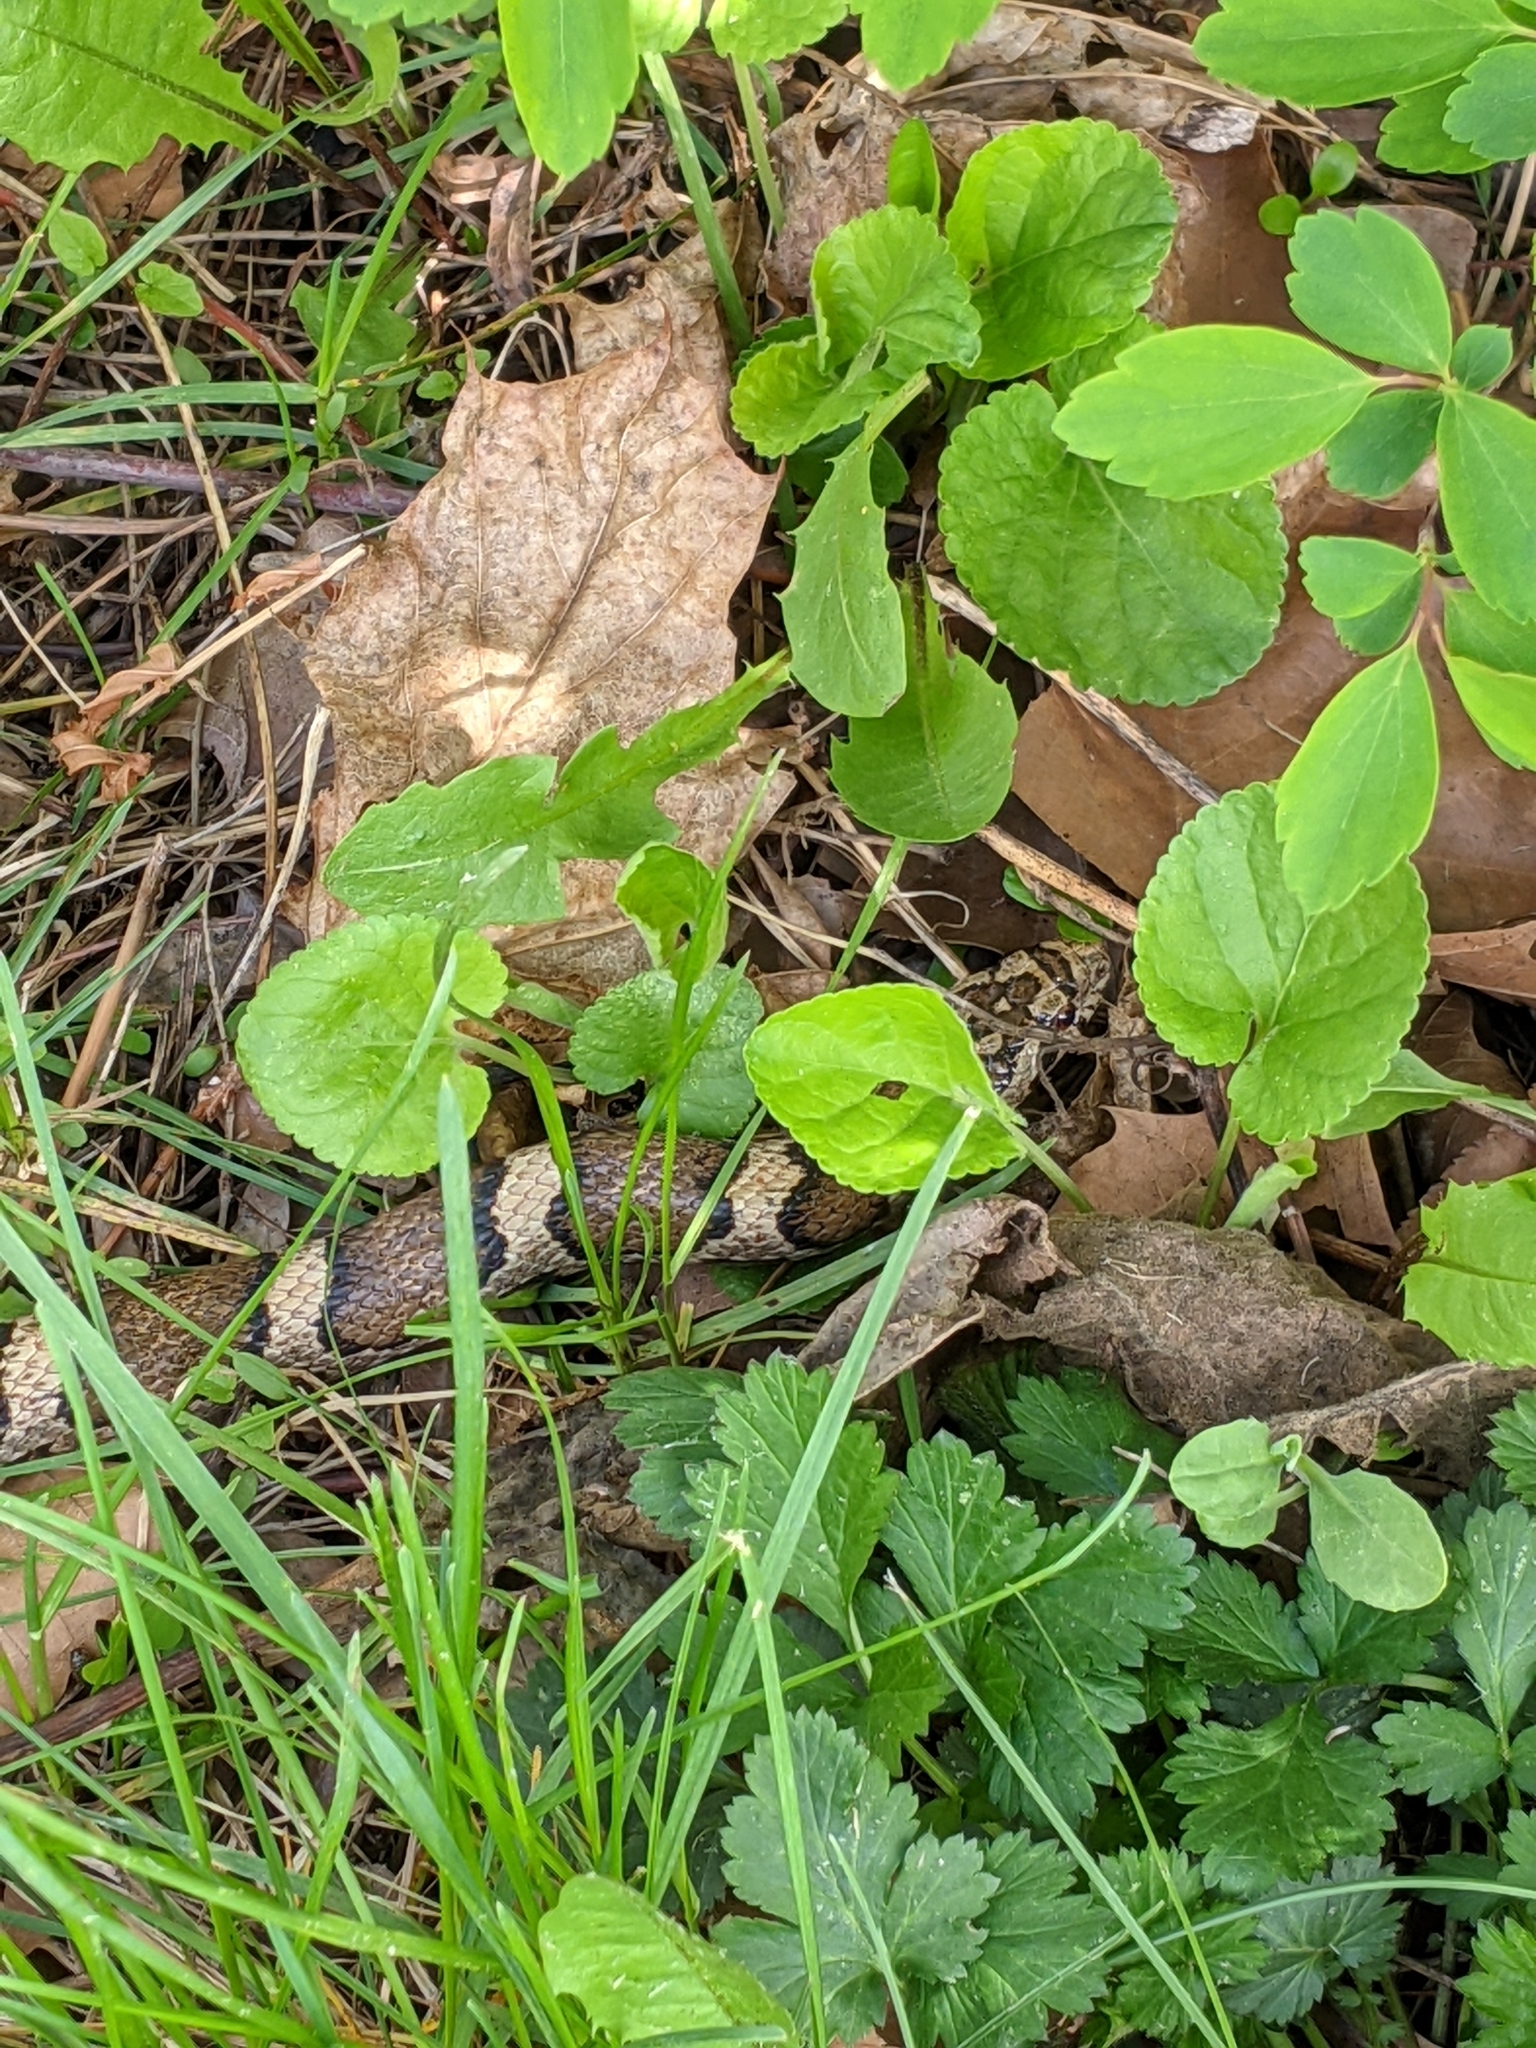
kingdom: Animalia
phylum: Chordata
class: Squamata
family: Colubridae
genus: Lampropeltis
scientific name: Lampropeltis triangulum
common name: Eastern milksnake
